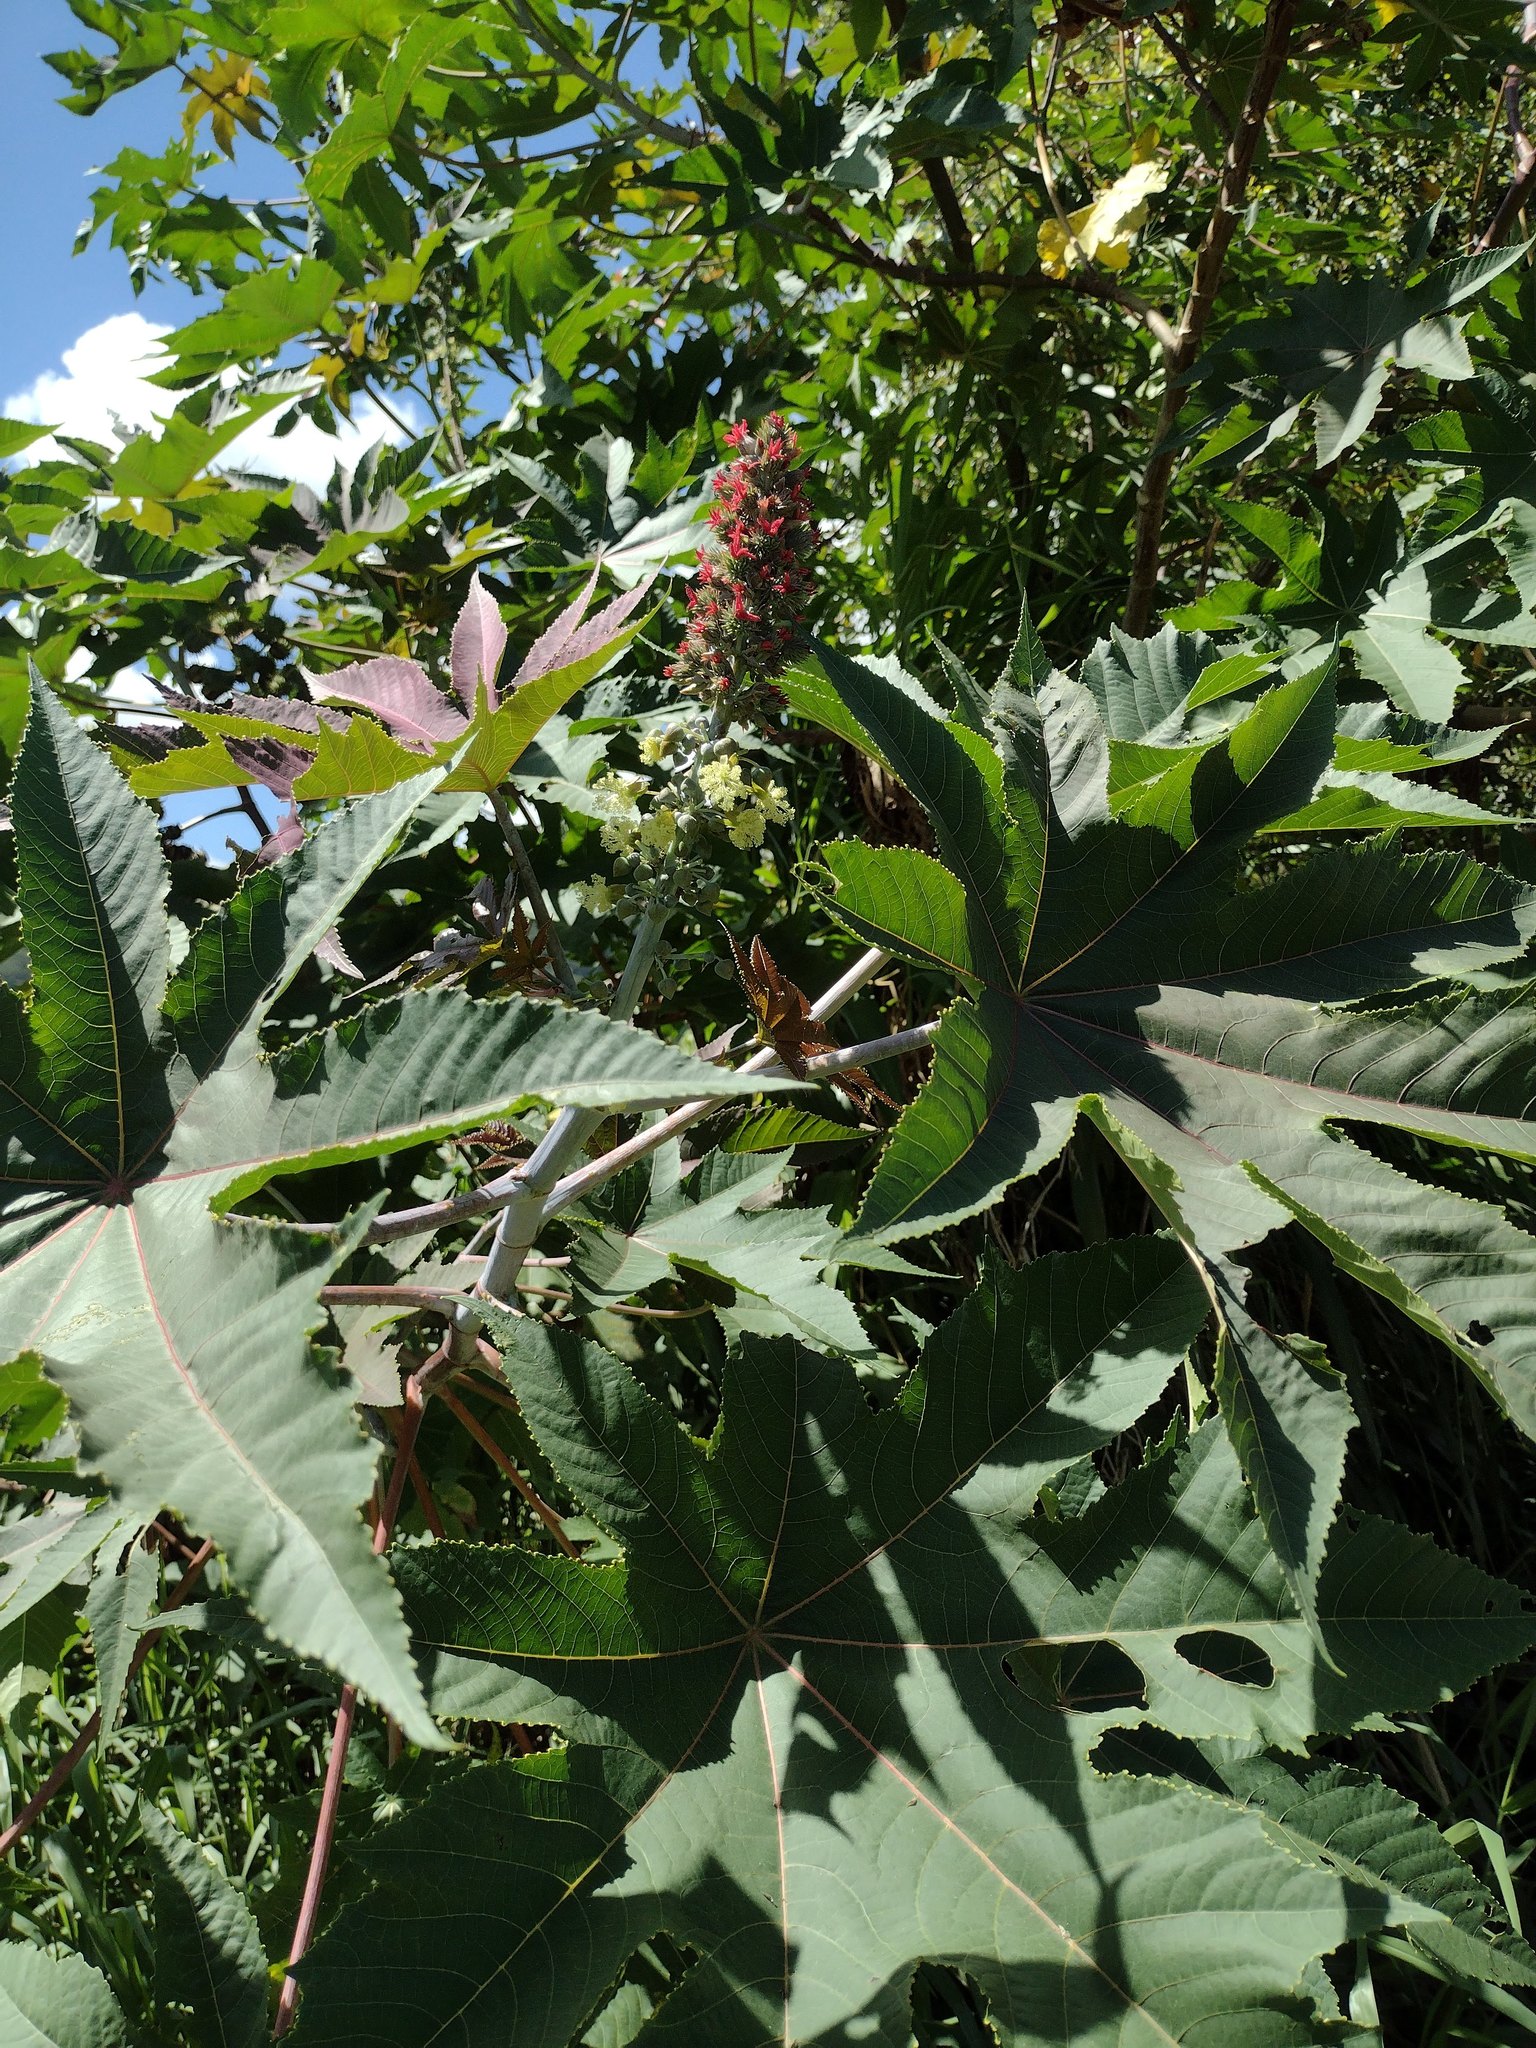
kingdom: Plantae
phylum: Tracheophyta
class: Magnoliopsida
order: Malpighiales
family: Euphorbiaceae
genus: Ricinus
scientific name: Ricinus communis
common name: Castor-oil-plant
